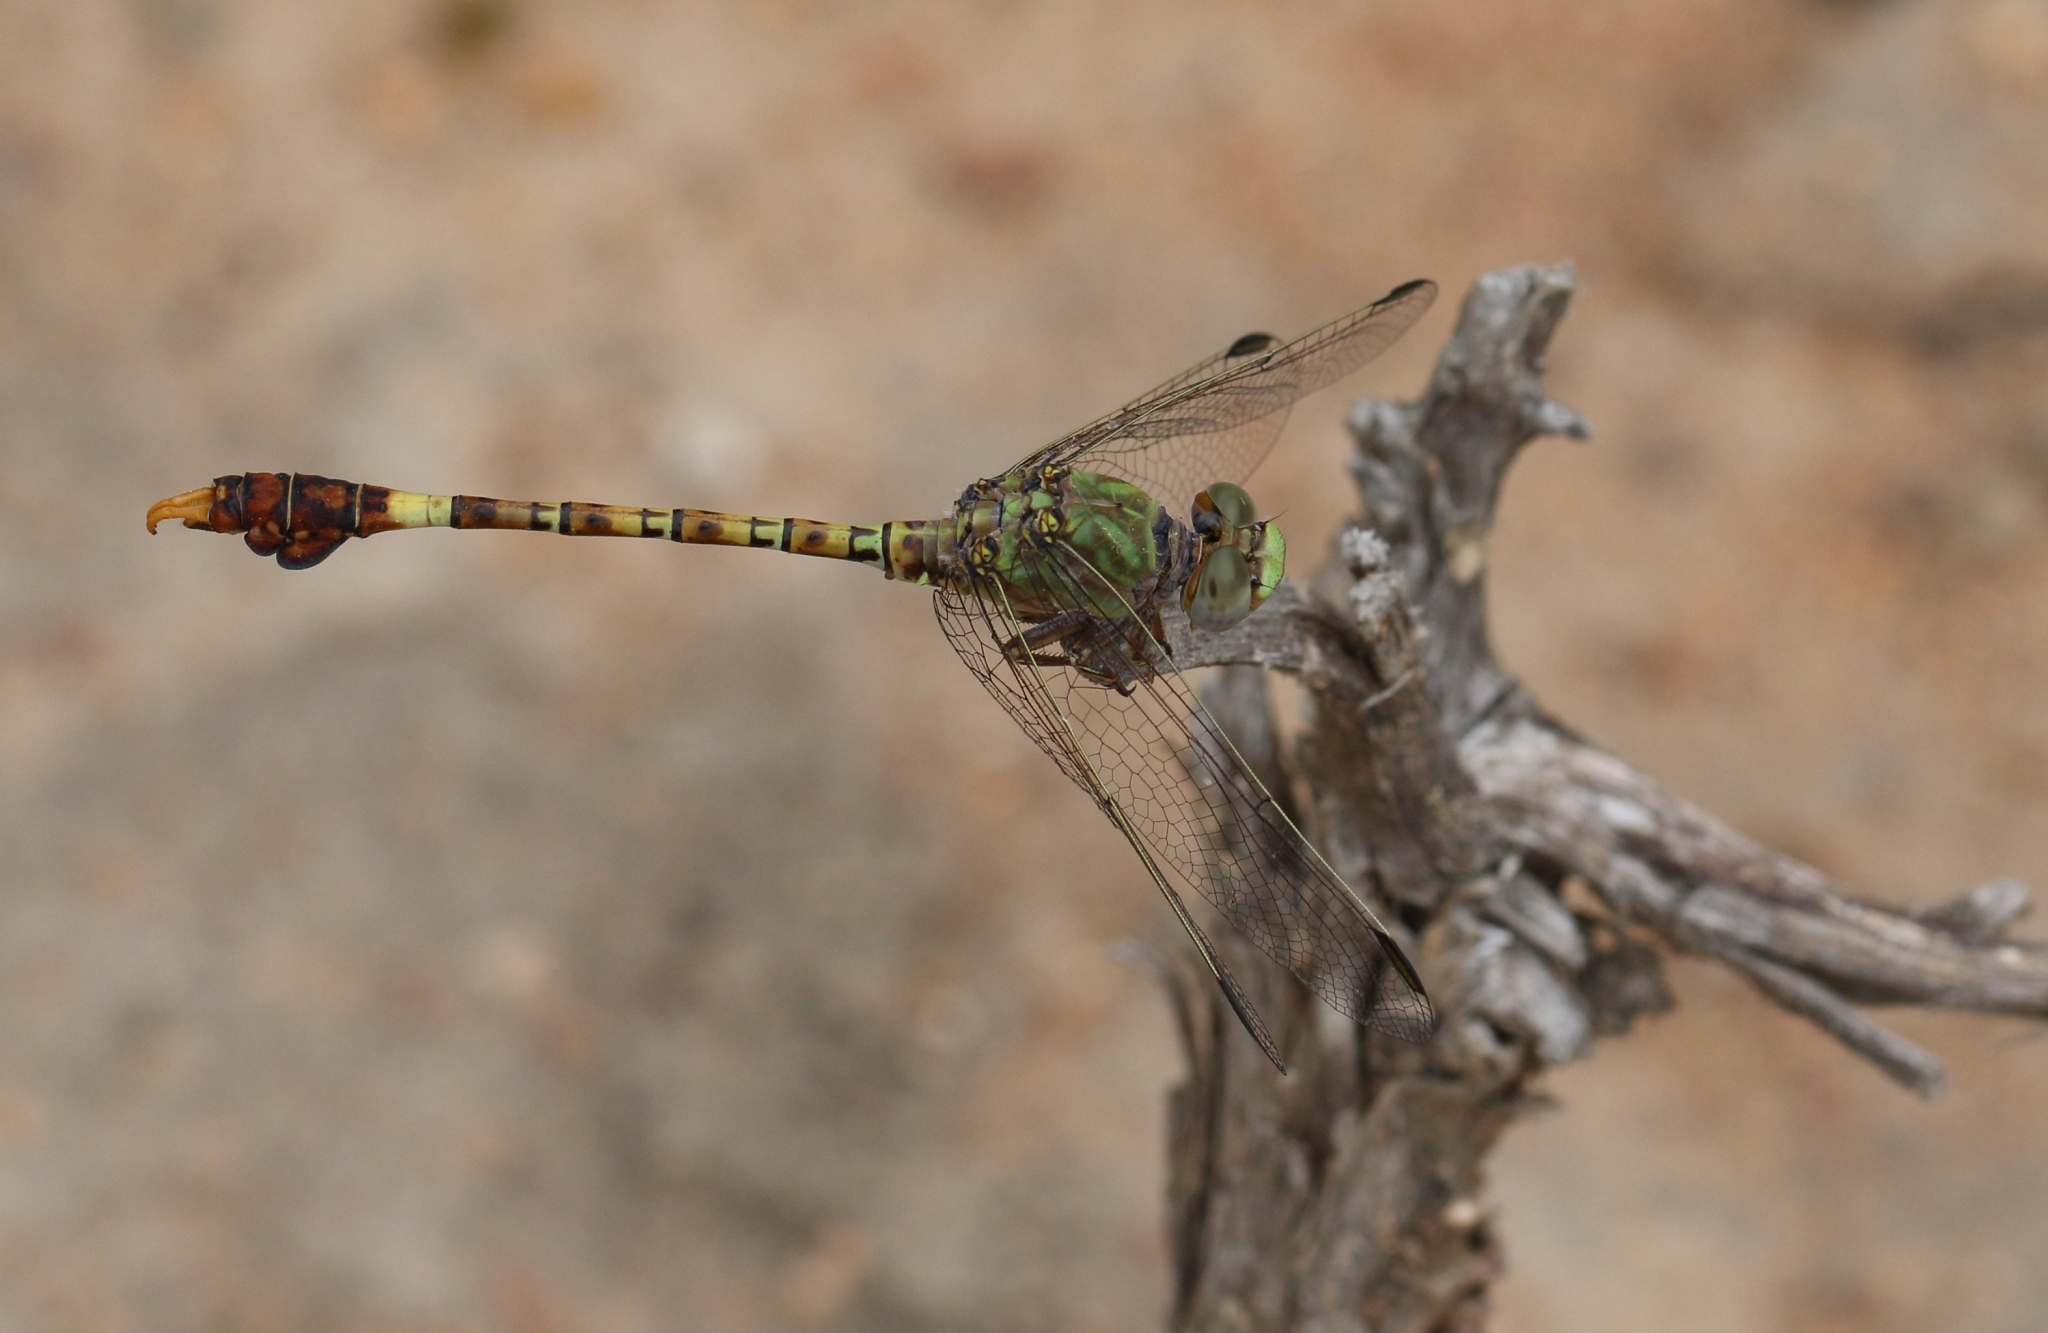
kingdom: Animalia
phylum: Arthropoda
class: Insecta
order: Odonata
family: Gomphidae
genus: Paragomphus
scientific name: Paragomphus genei
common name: Common hooktail
